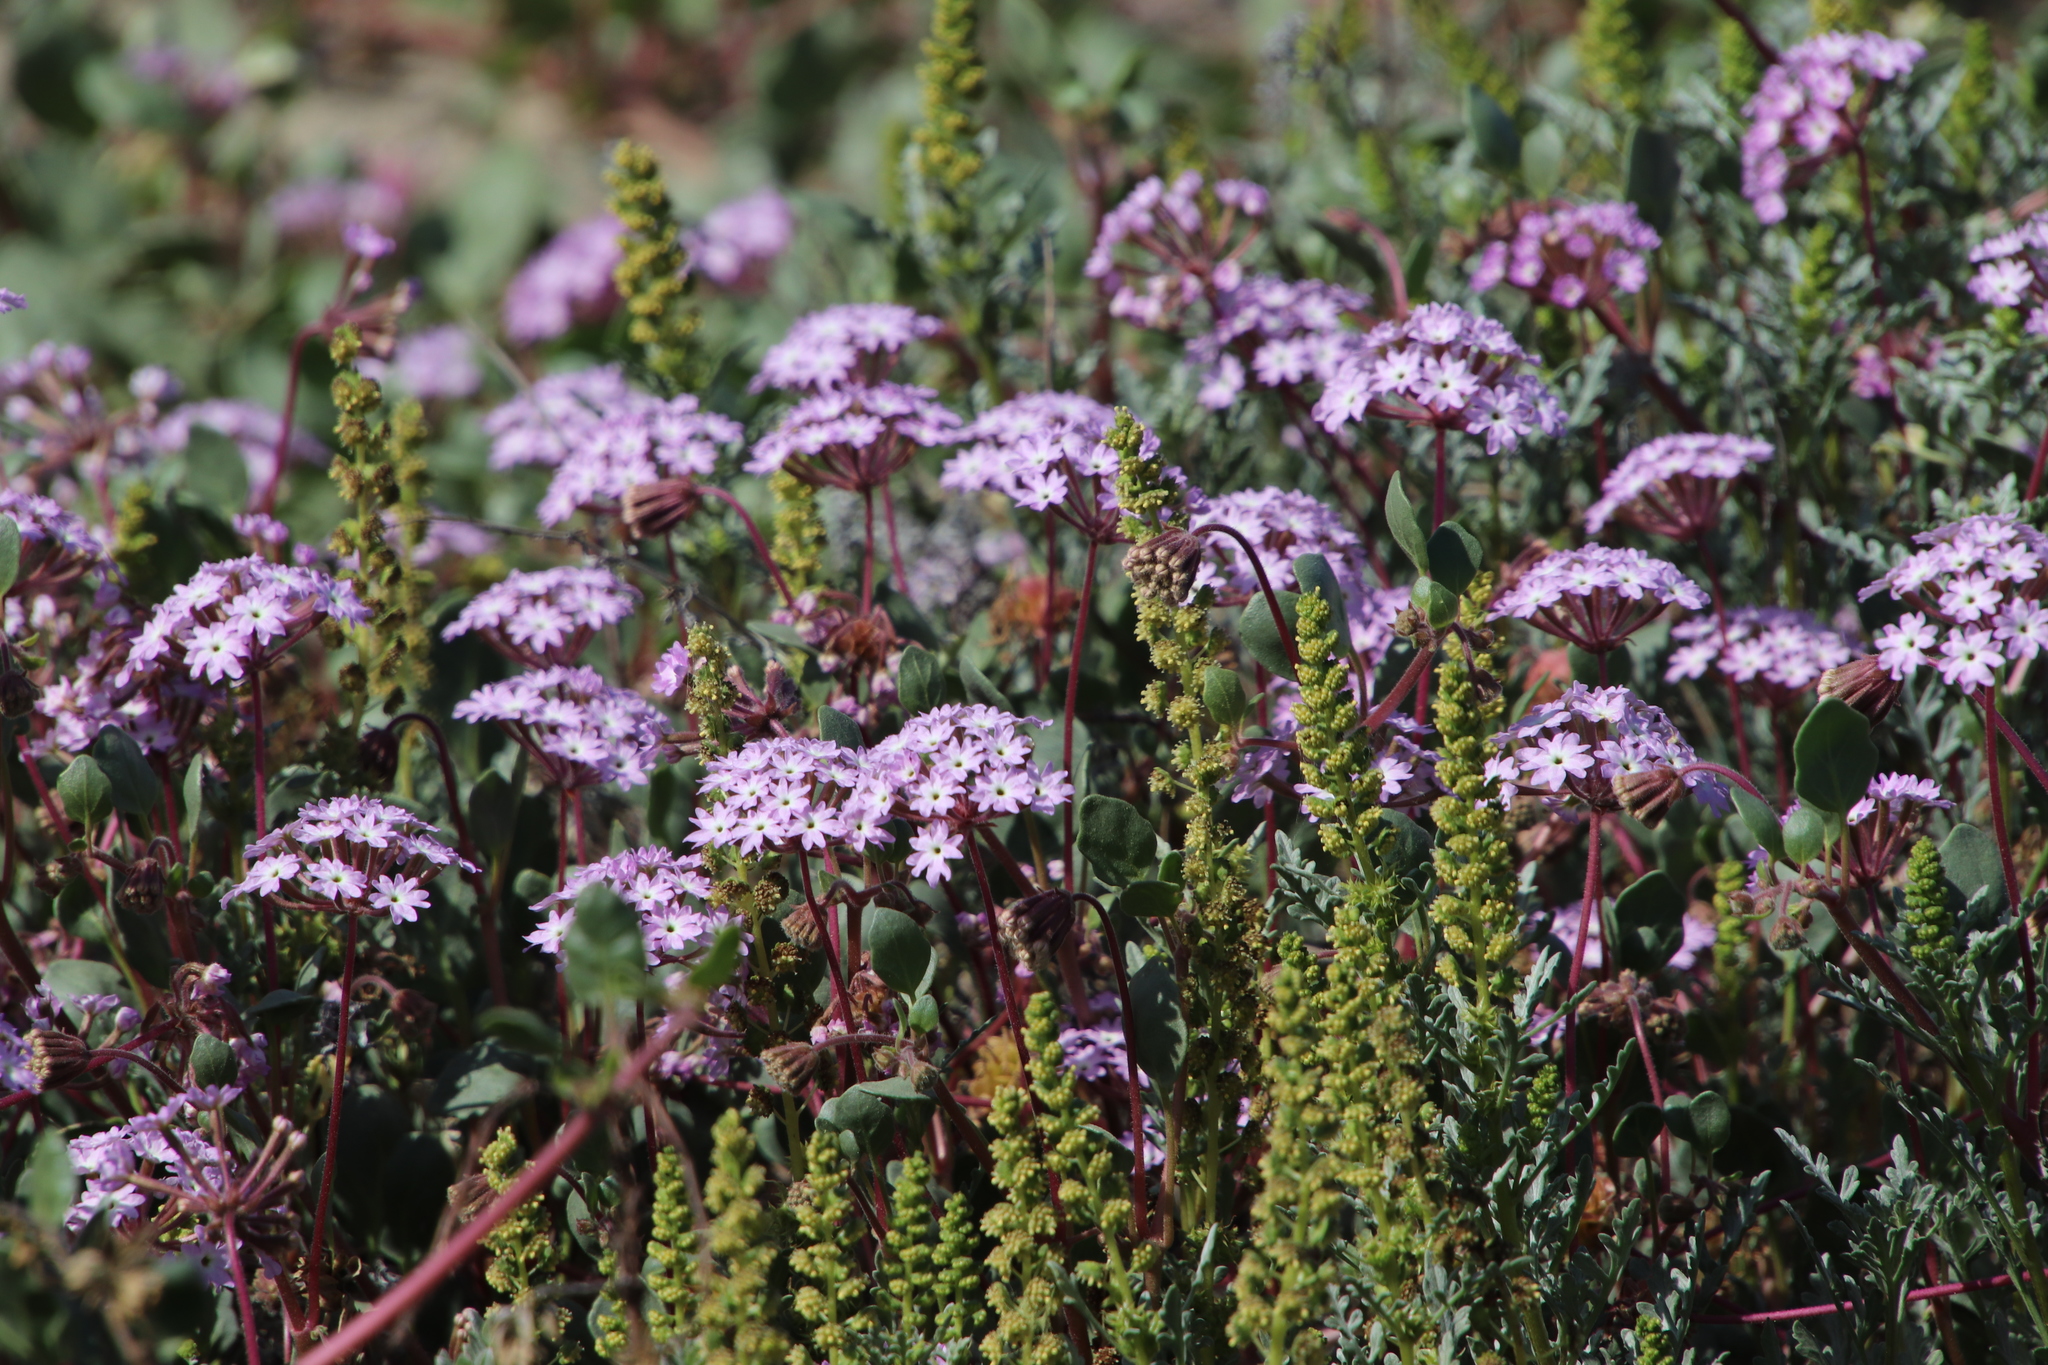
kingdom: Plantae
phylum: Tracheophyta
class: Magnoliopsida
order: Caryophyllales
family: Nyctaginaceae
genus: Abronia
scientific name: Abronia umbellata
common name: Sand-verbena
